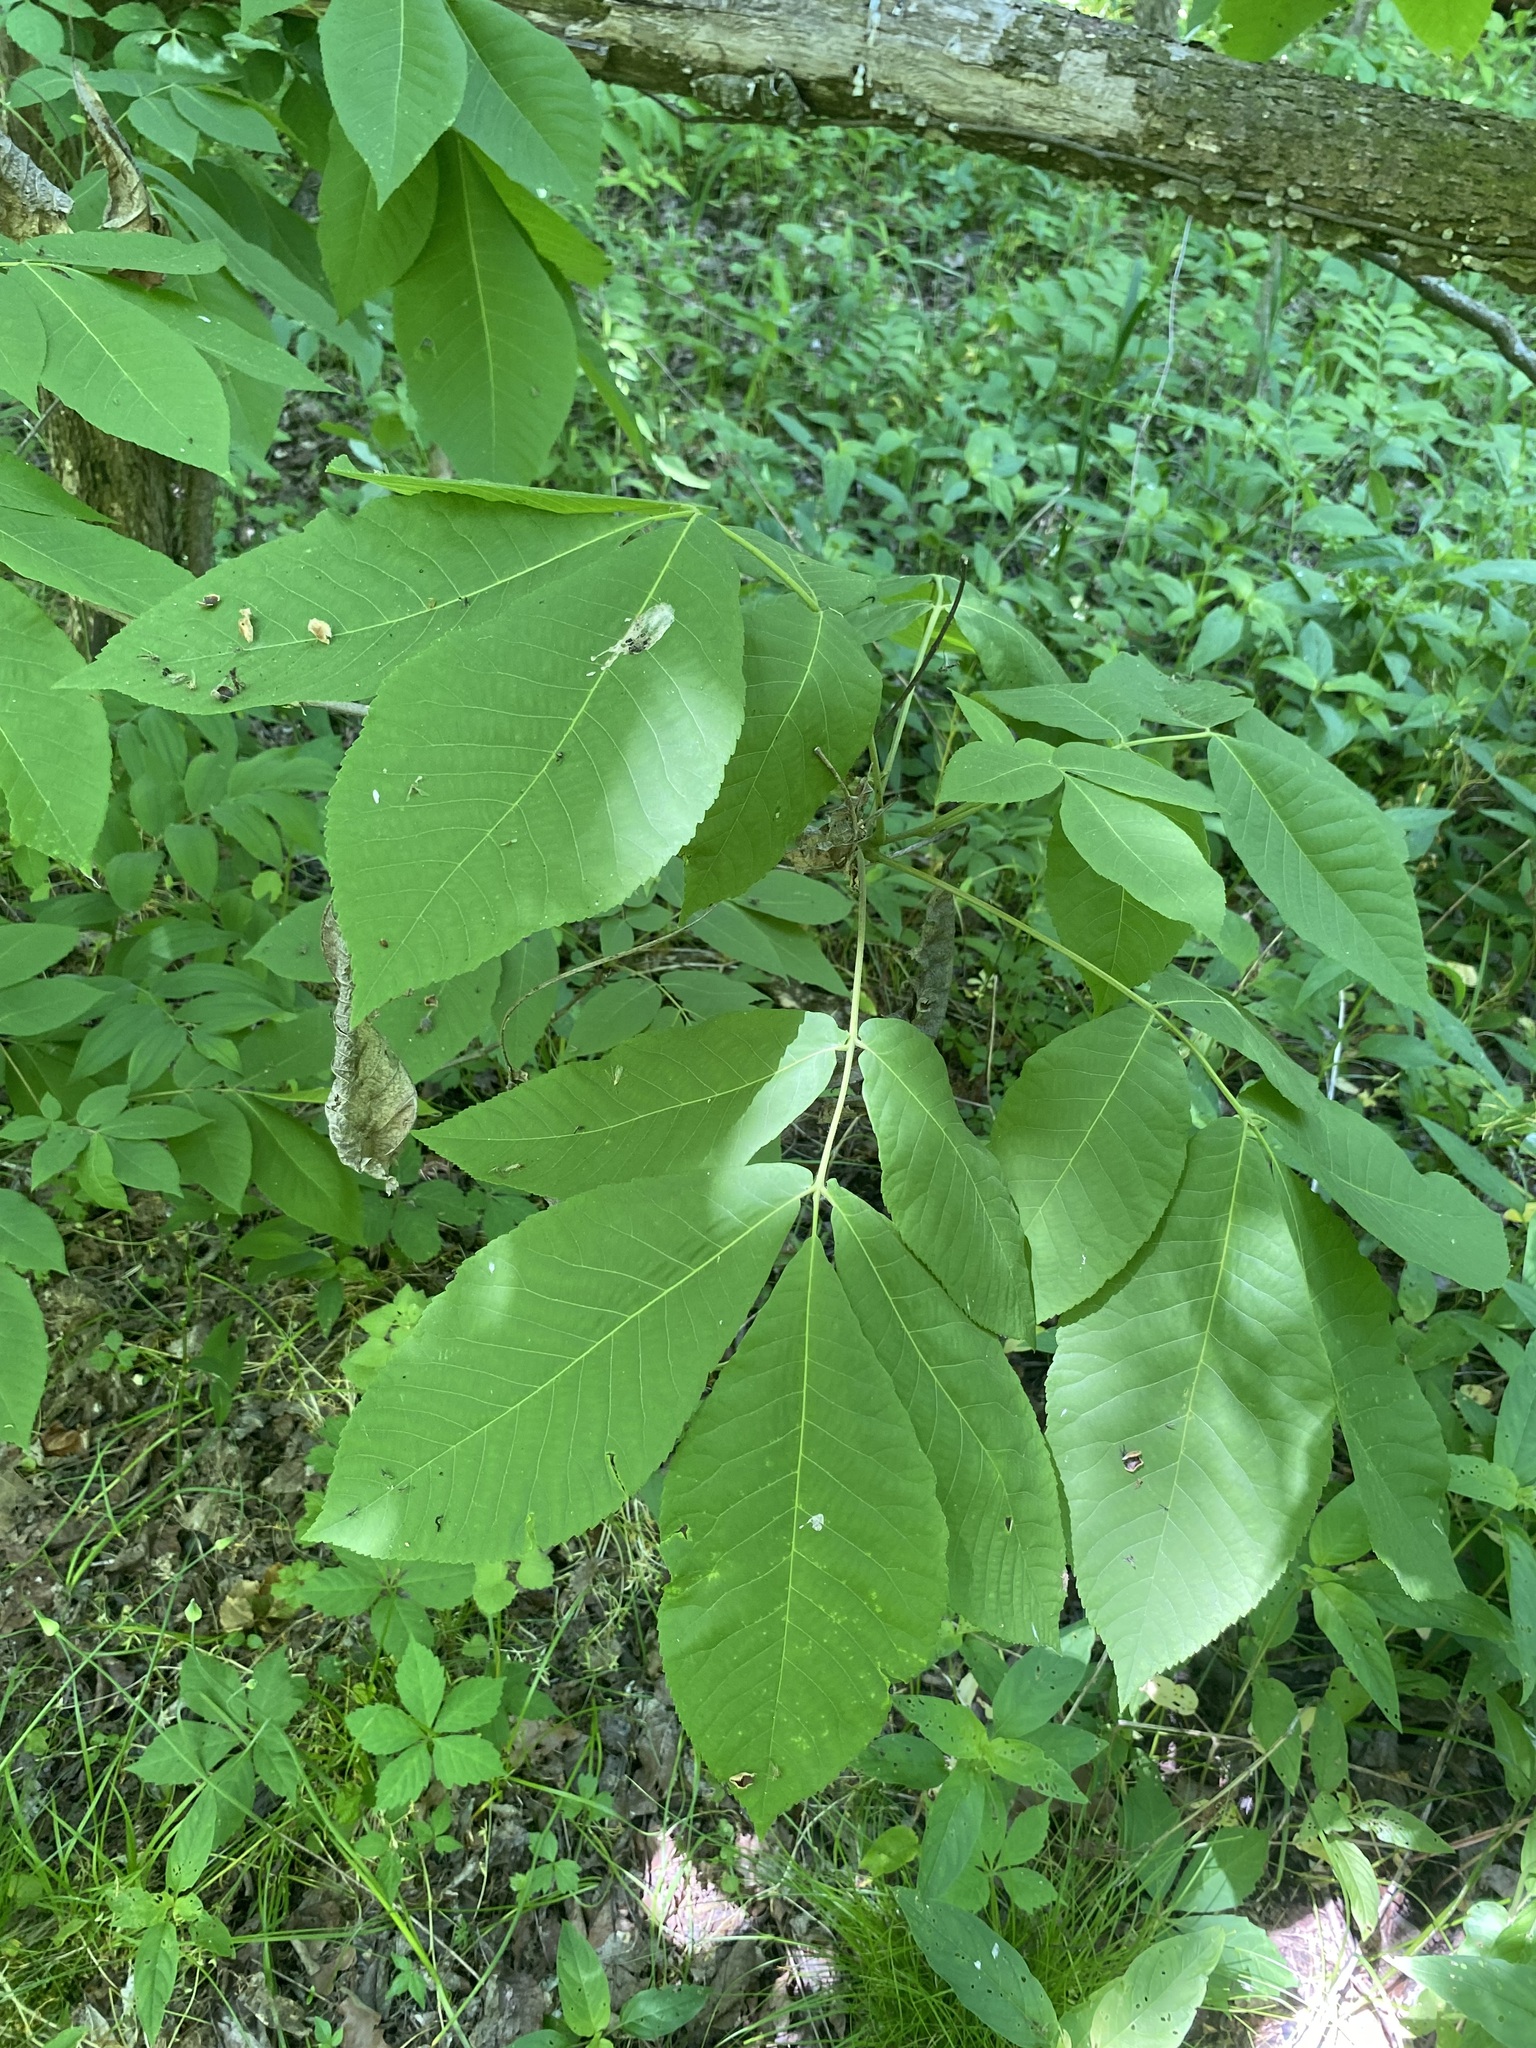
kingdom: Plantae
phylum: Tracheophyta
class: Magnoliopsida
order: Fagales
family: Juglandaceae
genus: Carya
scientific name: Carya ovata
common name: Shagbark hickory
